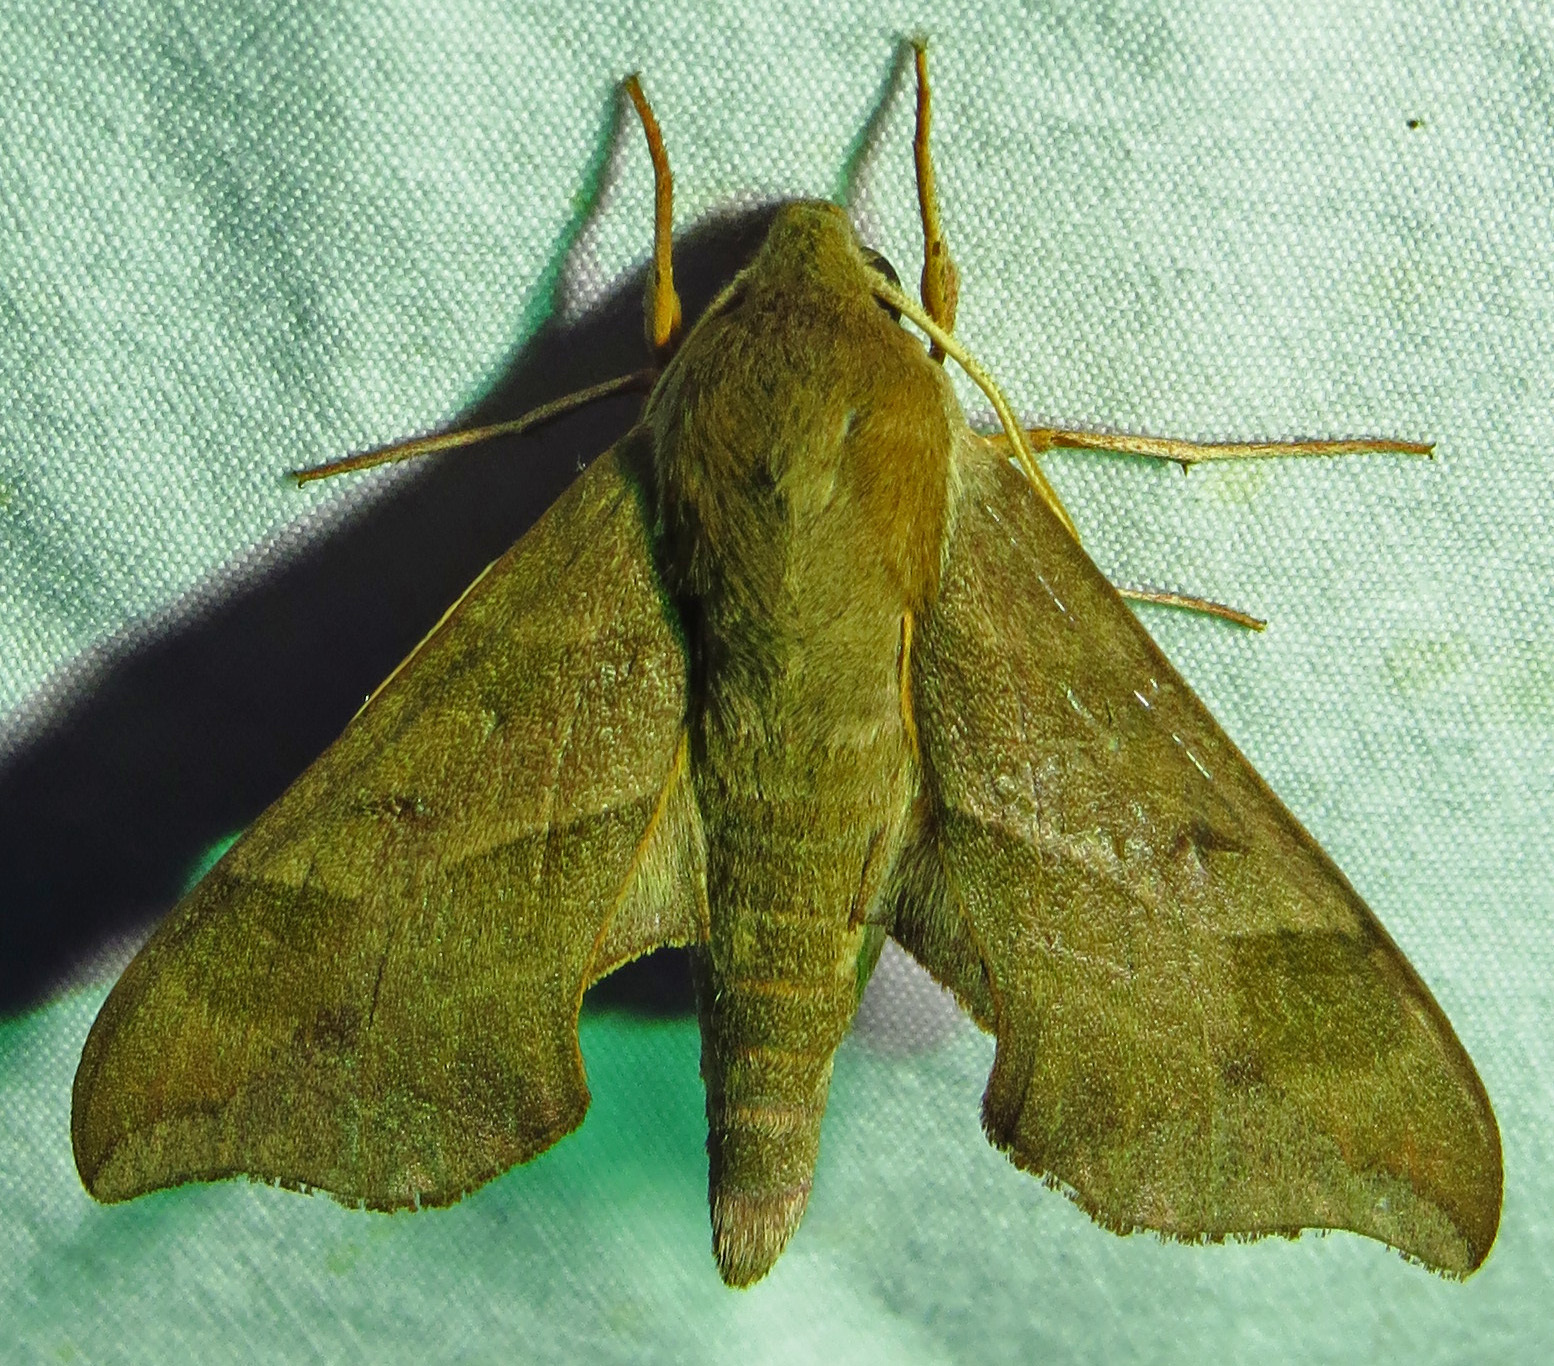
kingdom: Animalia
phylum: Arthropoda
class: Insecta
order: Lepidoptera
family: Sphingidae
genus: Darapsa
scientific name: Darapsa myron
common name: Hog sphinx
